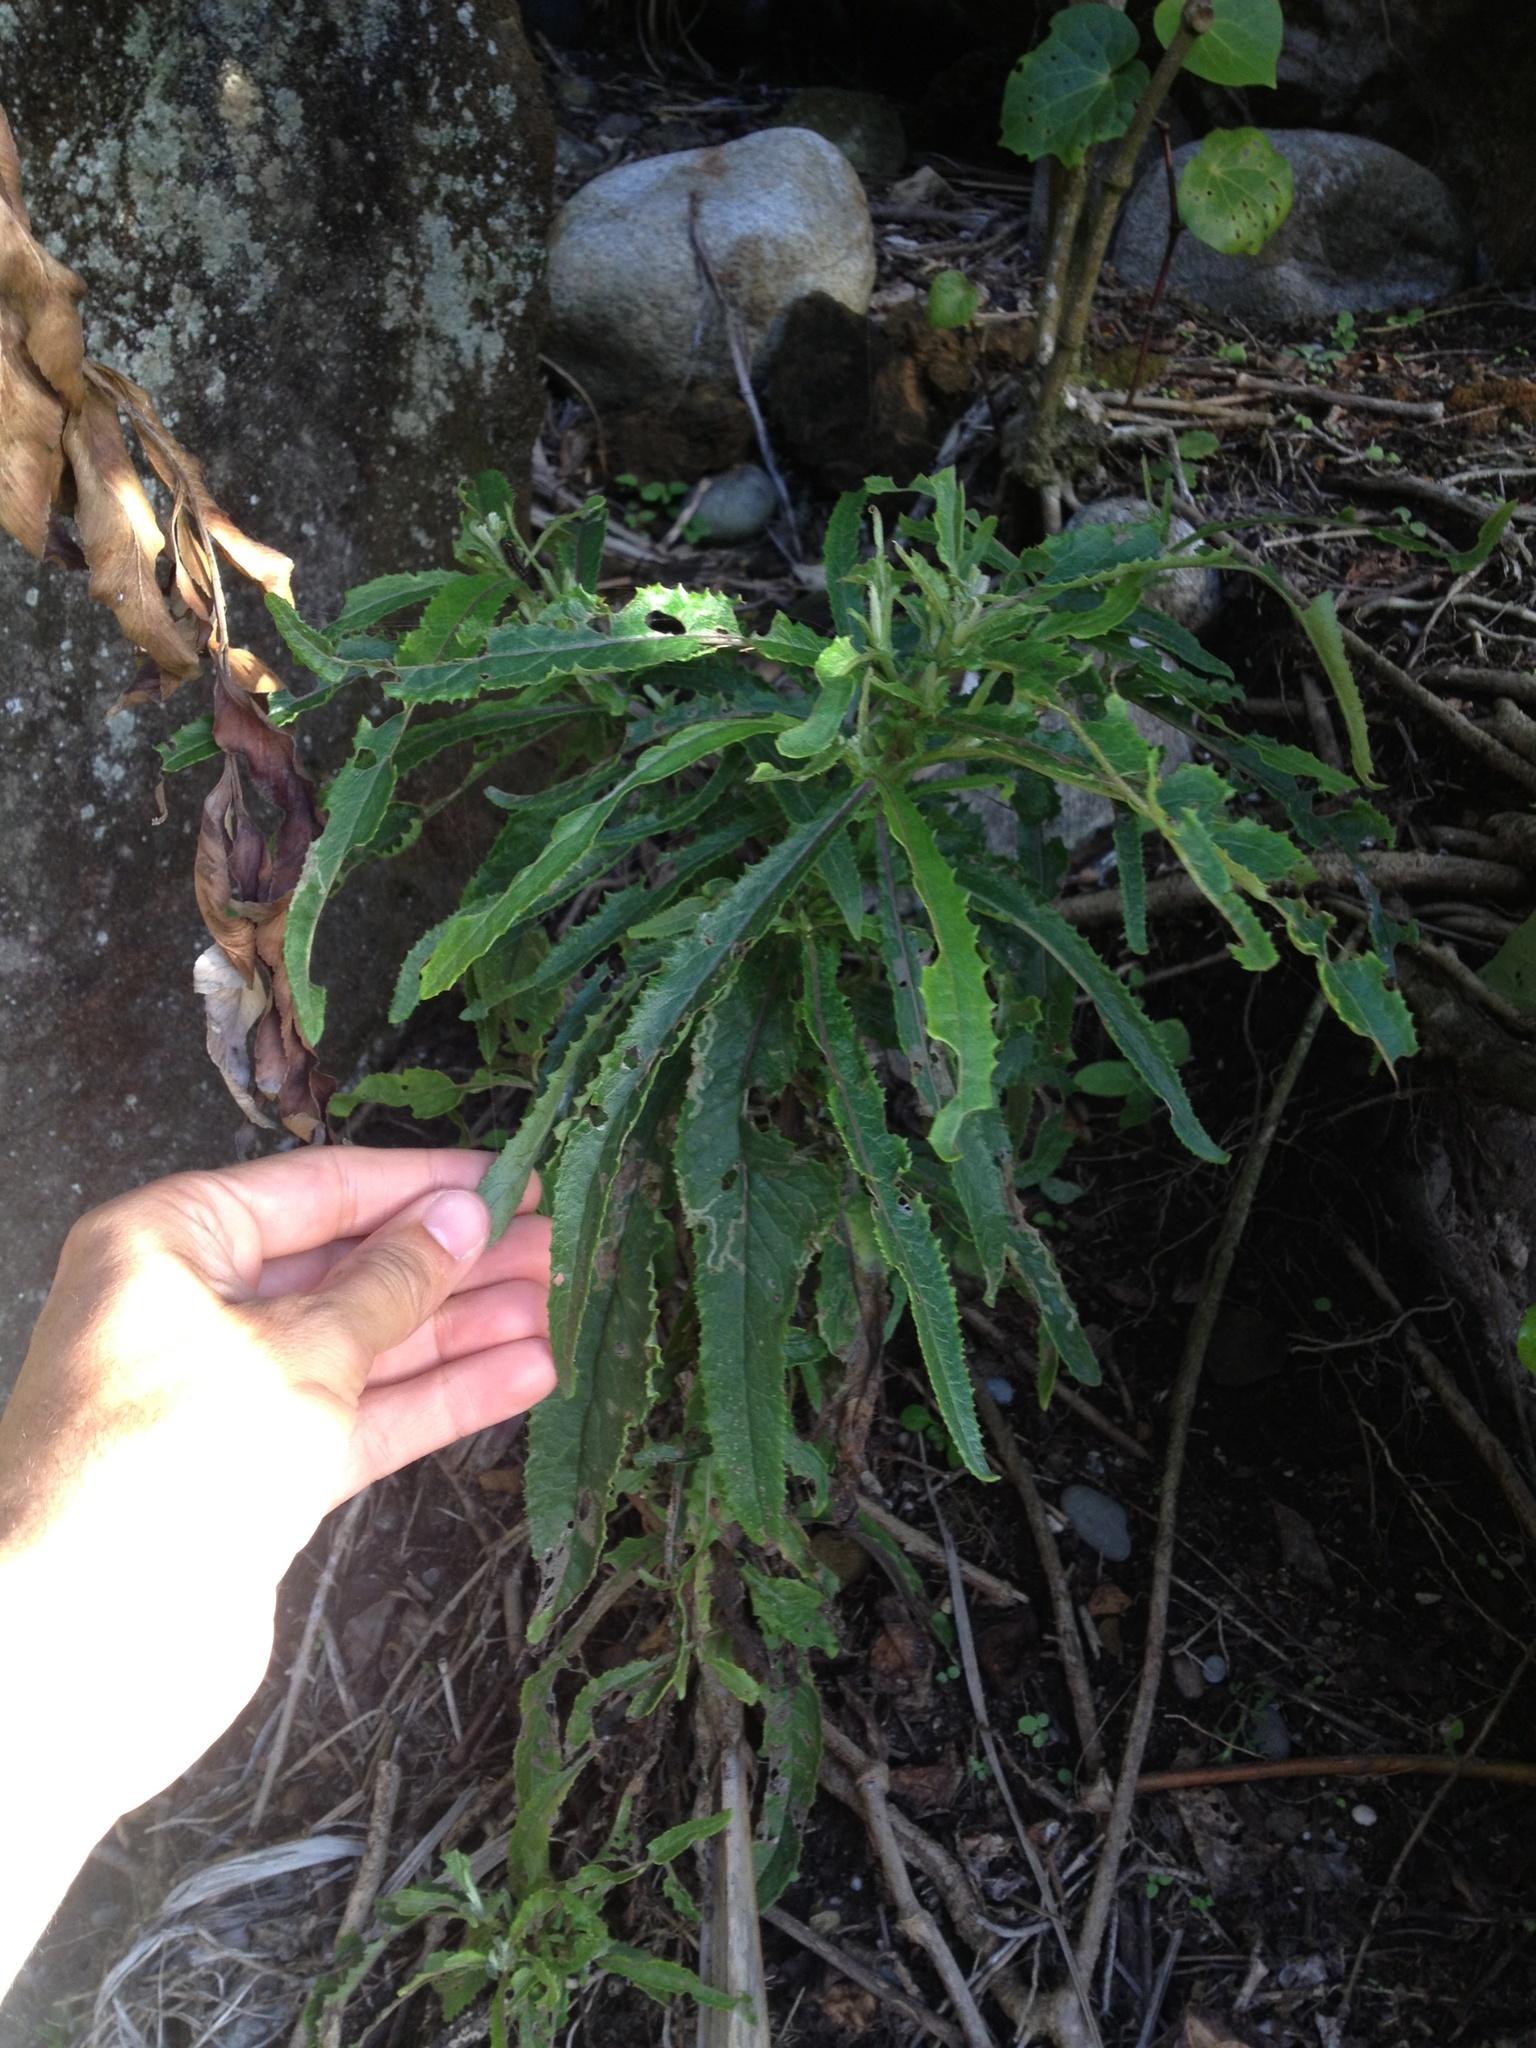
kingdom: Plantae
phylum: Tracheophyta
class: Magnoliopsida
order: Asterales
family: Asteraceae
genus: Senecio
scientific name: Senecio minimus
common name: Toothed fireweed
